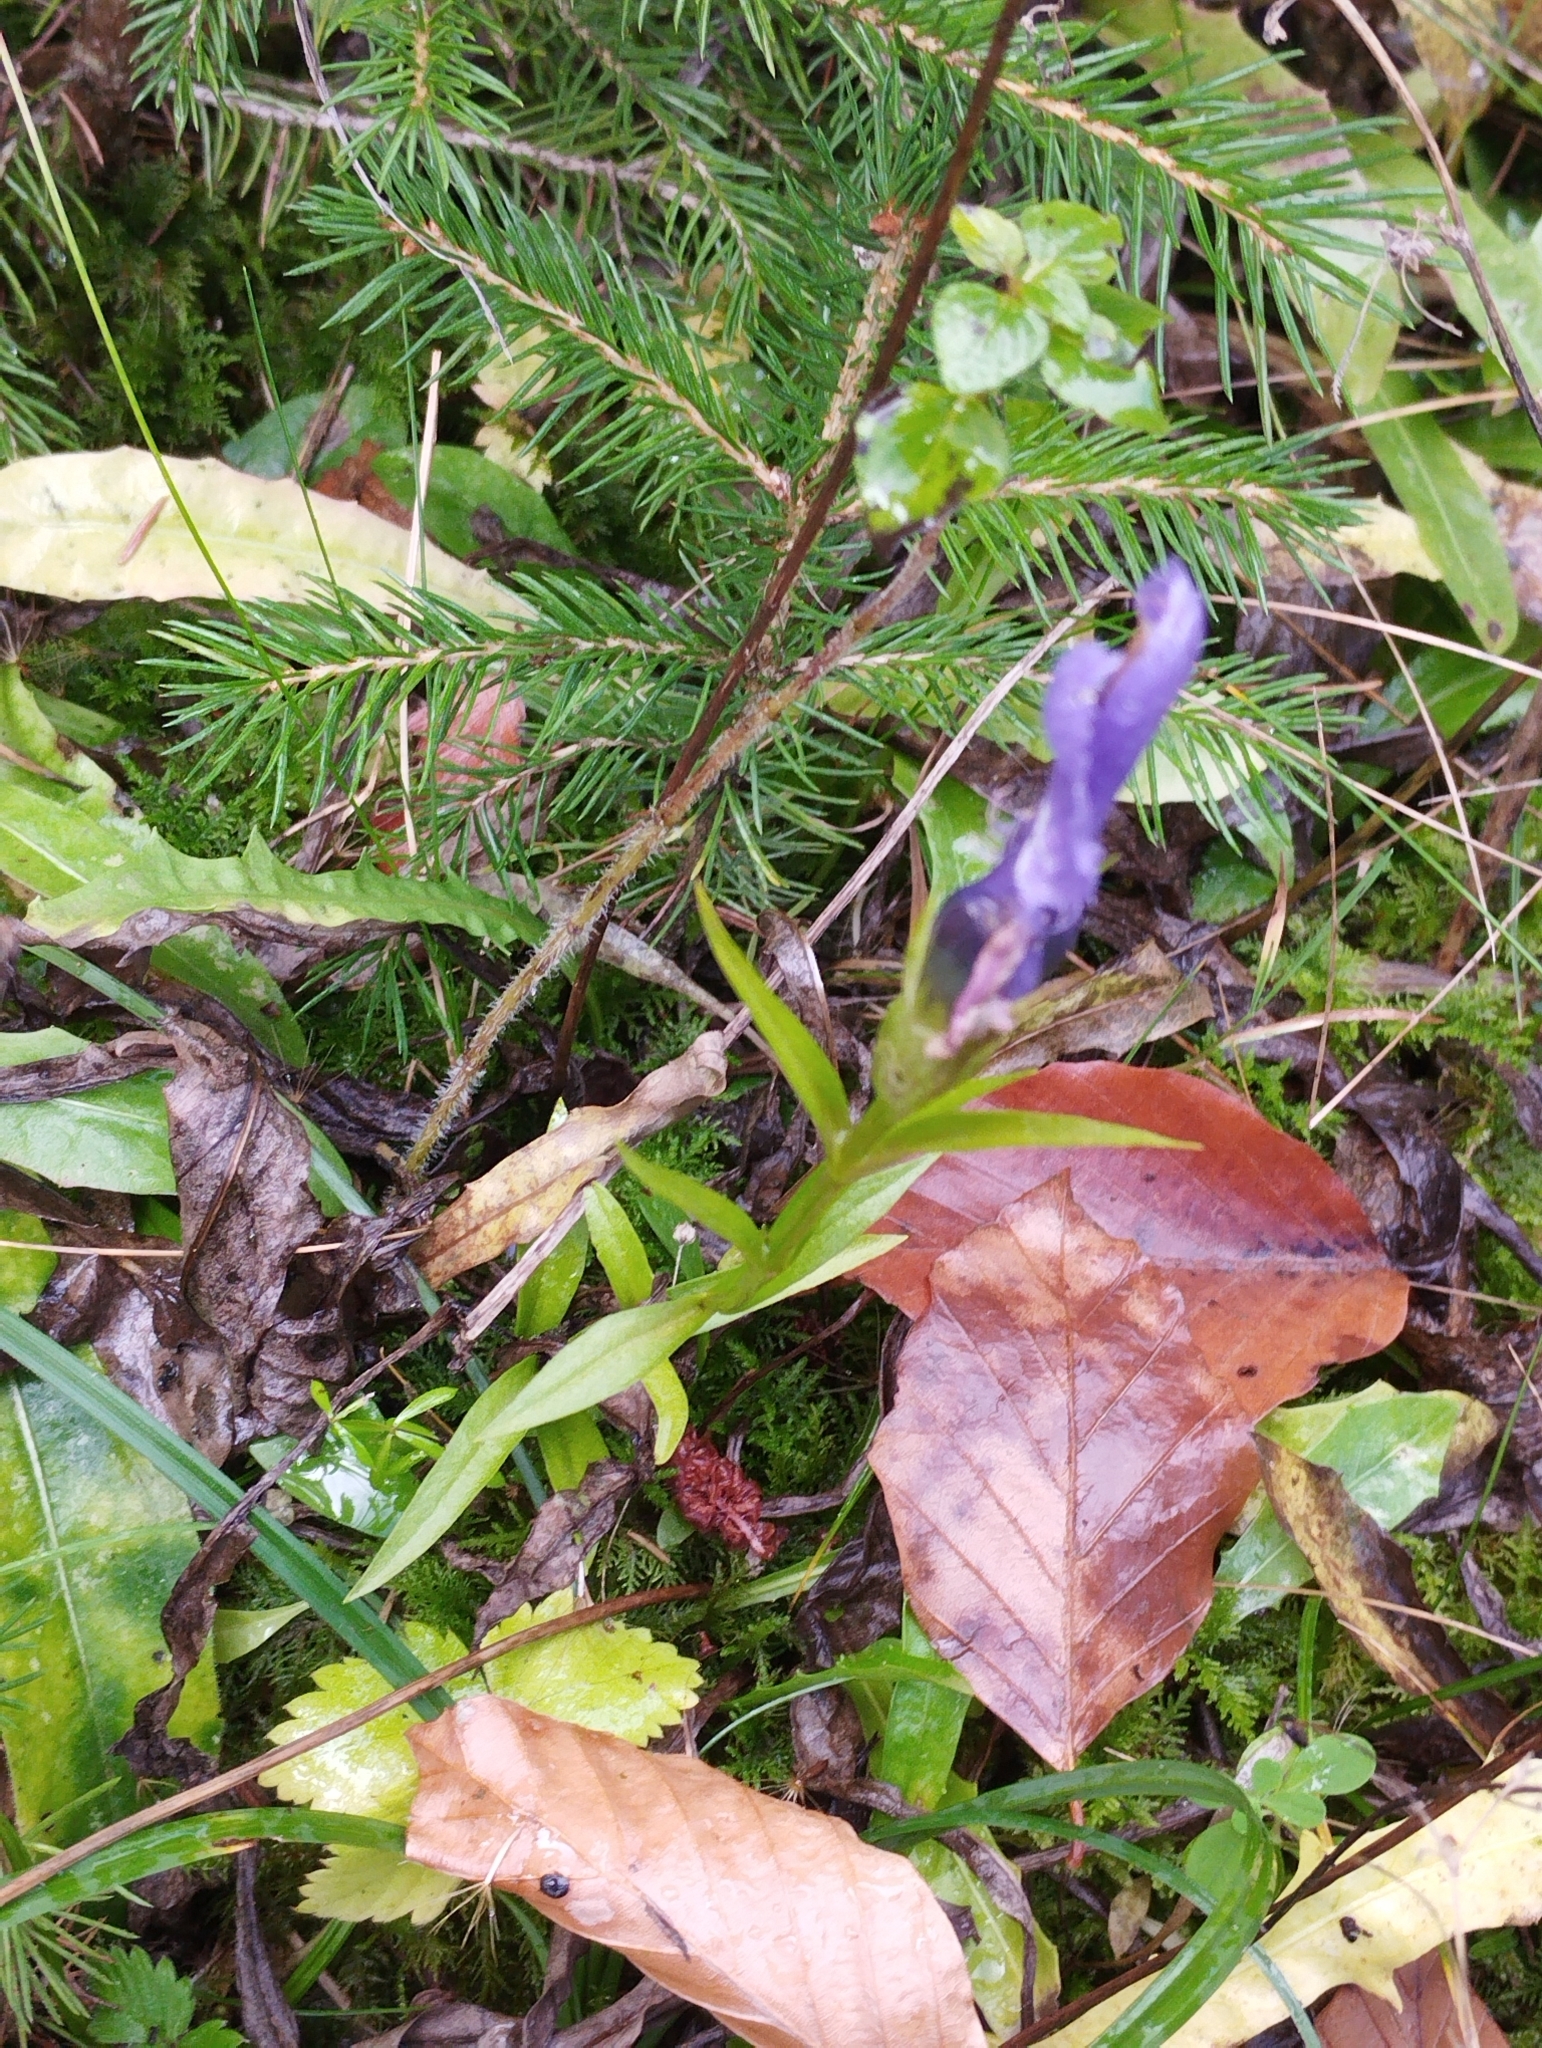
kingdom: Plantae
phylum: Tracheophyta
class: Magnoliopsida
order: Gentianales
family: Gentianaceae
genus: Gentianopsis
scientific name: Gentianopsis ciliata
